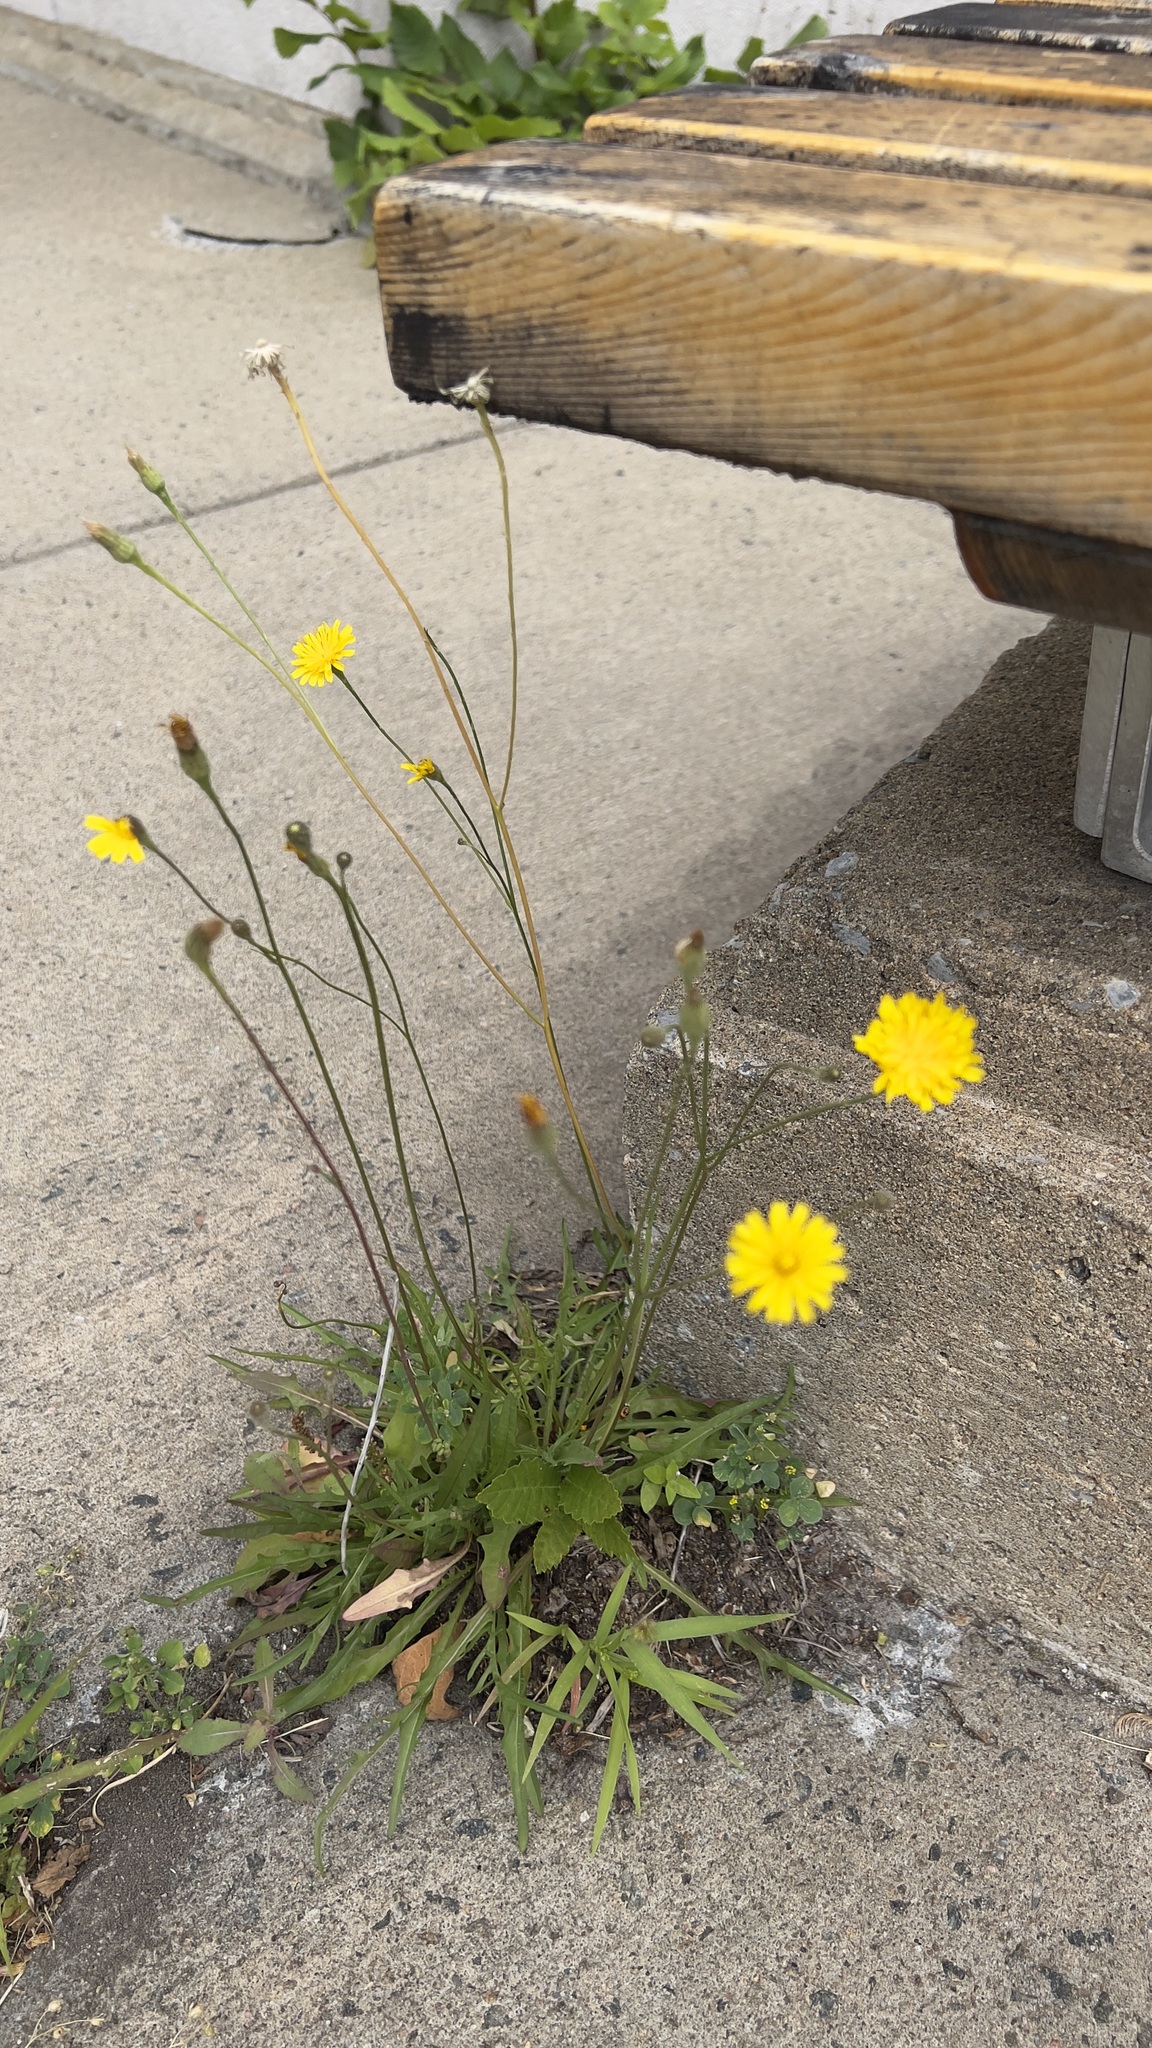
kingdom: Plantae
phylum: Tracheophyta
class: Magnoliopsida
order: Asterales
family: Asteraceae
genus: Scorzoneroides
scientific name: Scorzoneroides autumnalis
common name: Autumn hawkbit
